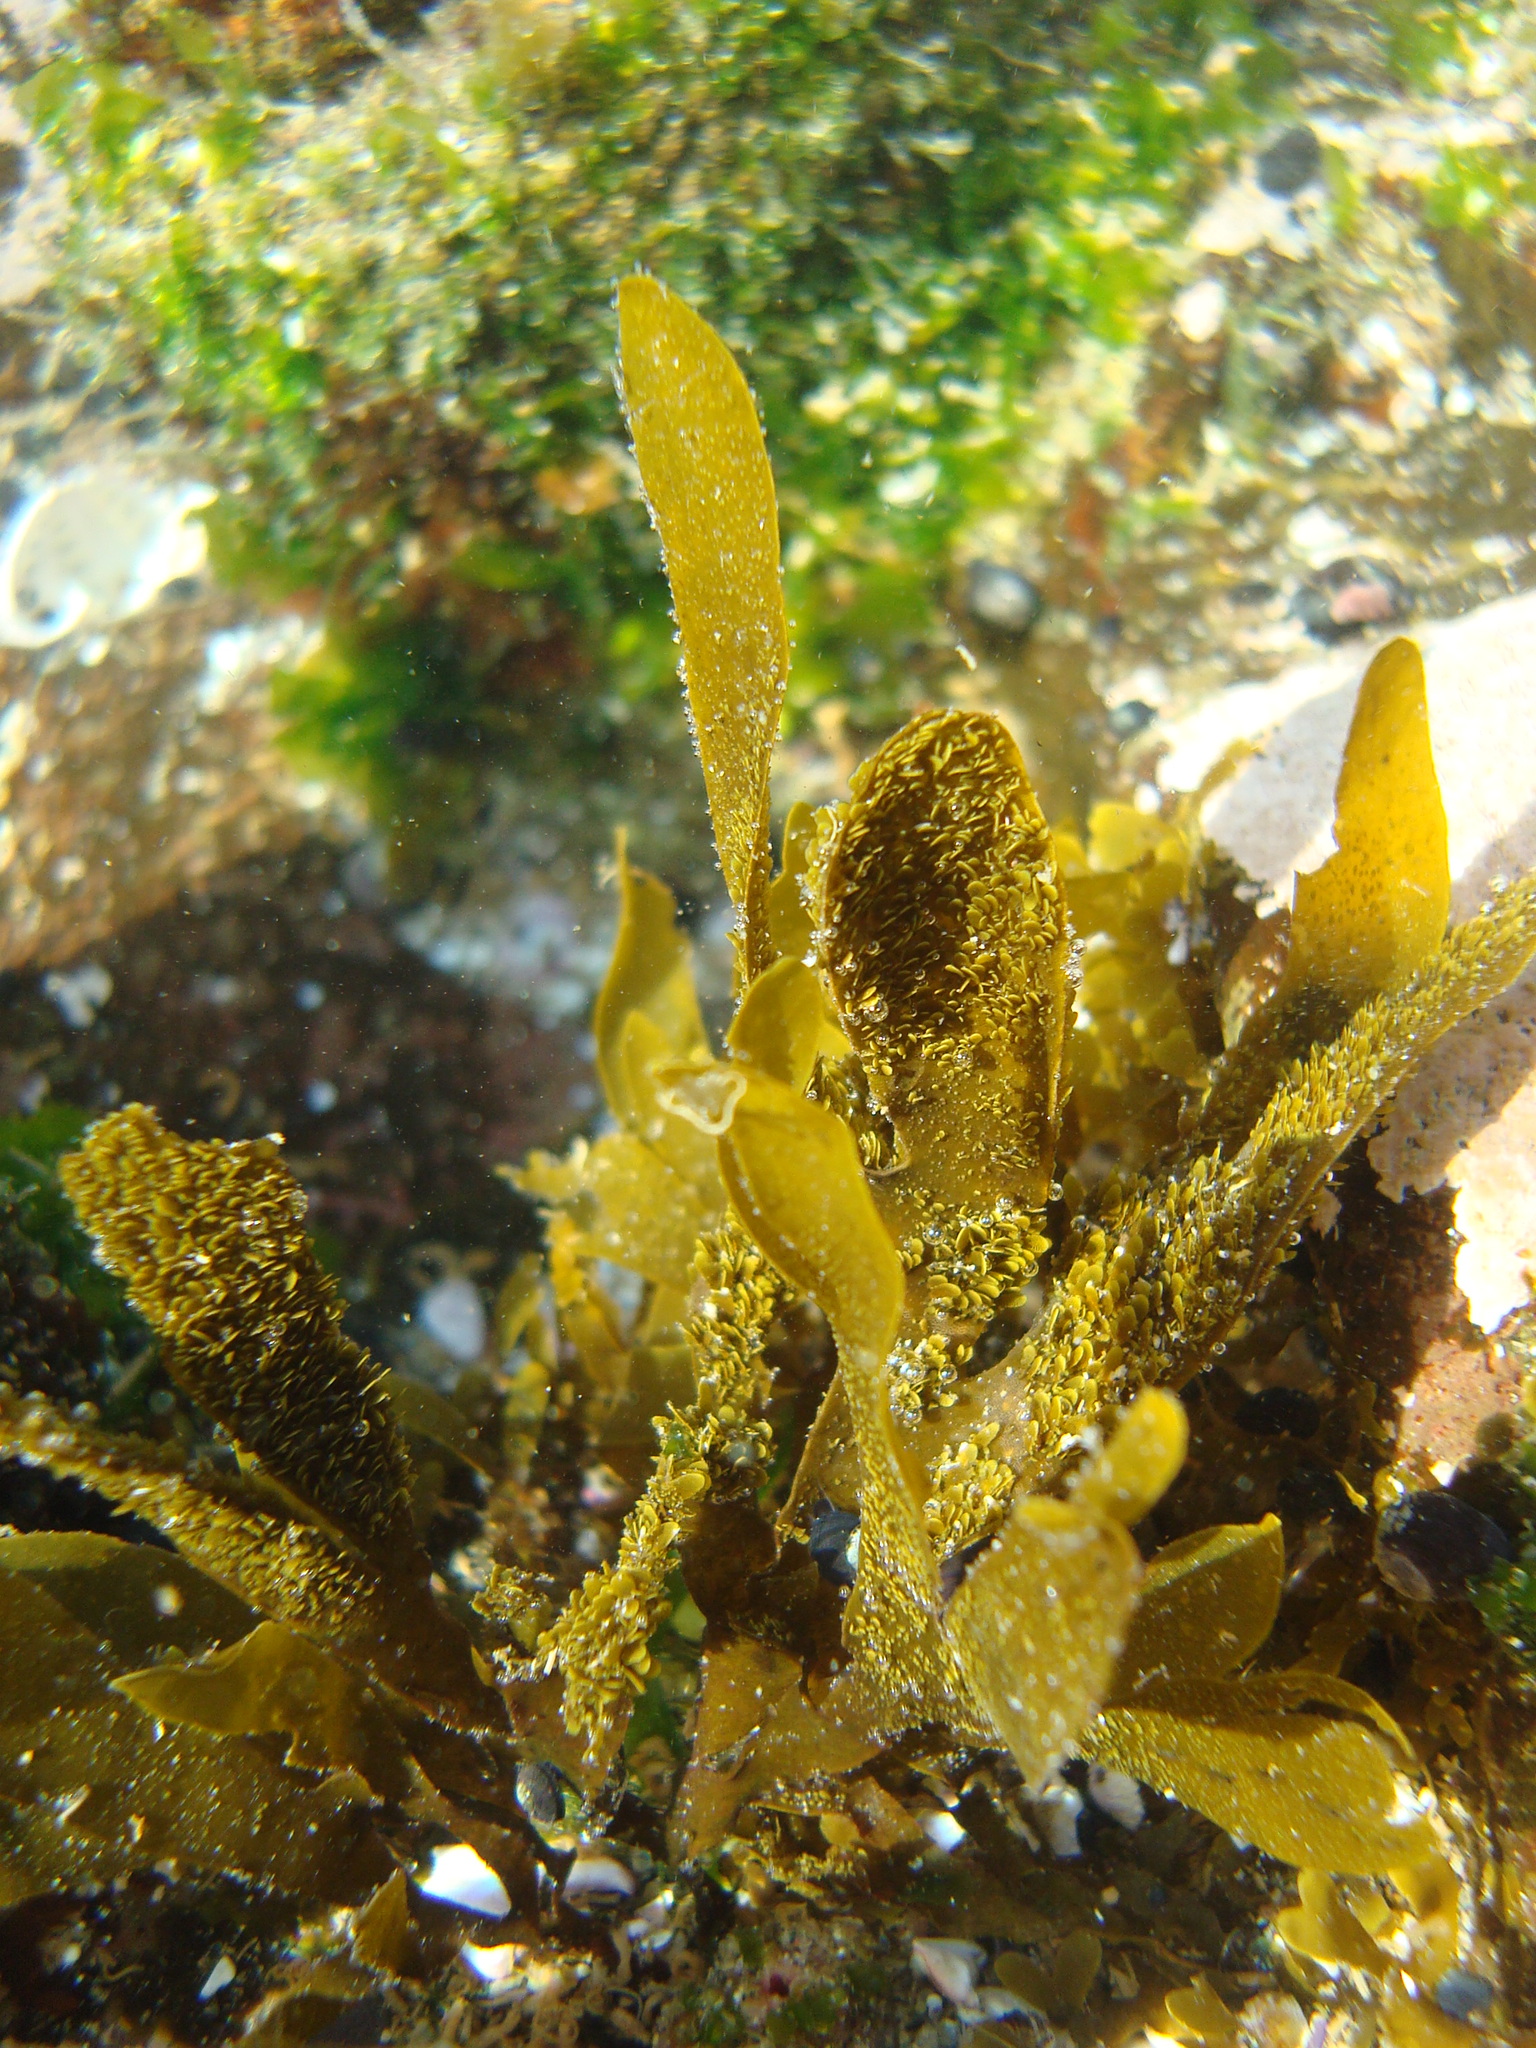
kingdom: Chromista
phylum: Ochrophyta
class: Phaeophyceae
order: Dictyotales
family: Dictyotaceae
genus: Dictyota
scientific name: Dictyota kunthii
